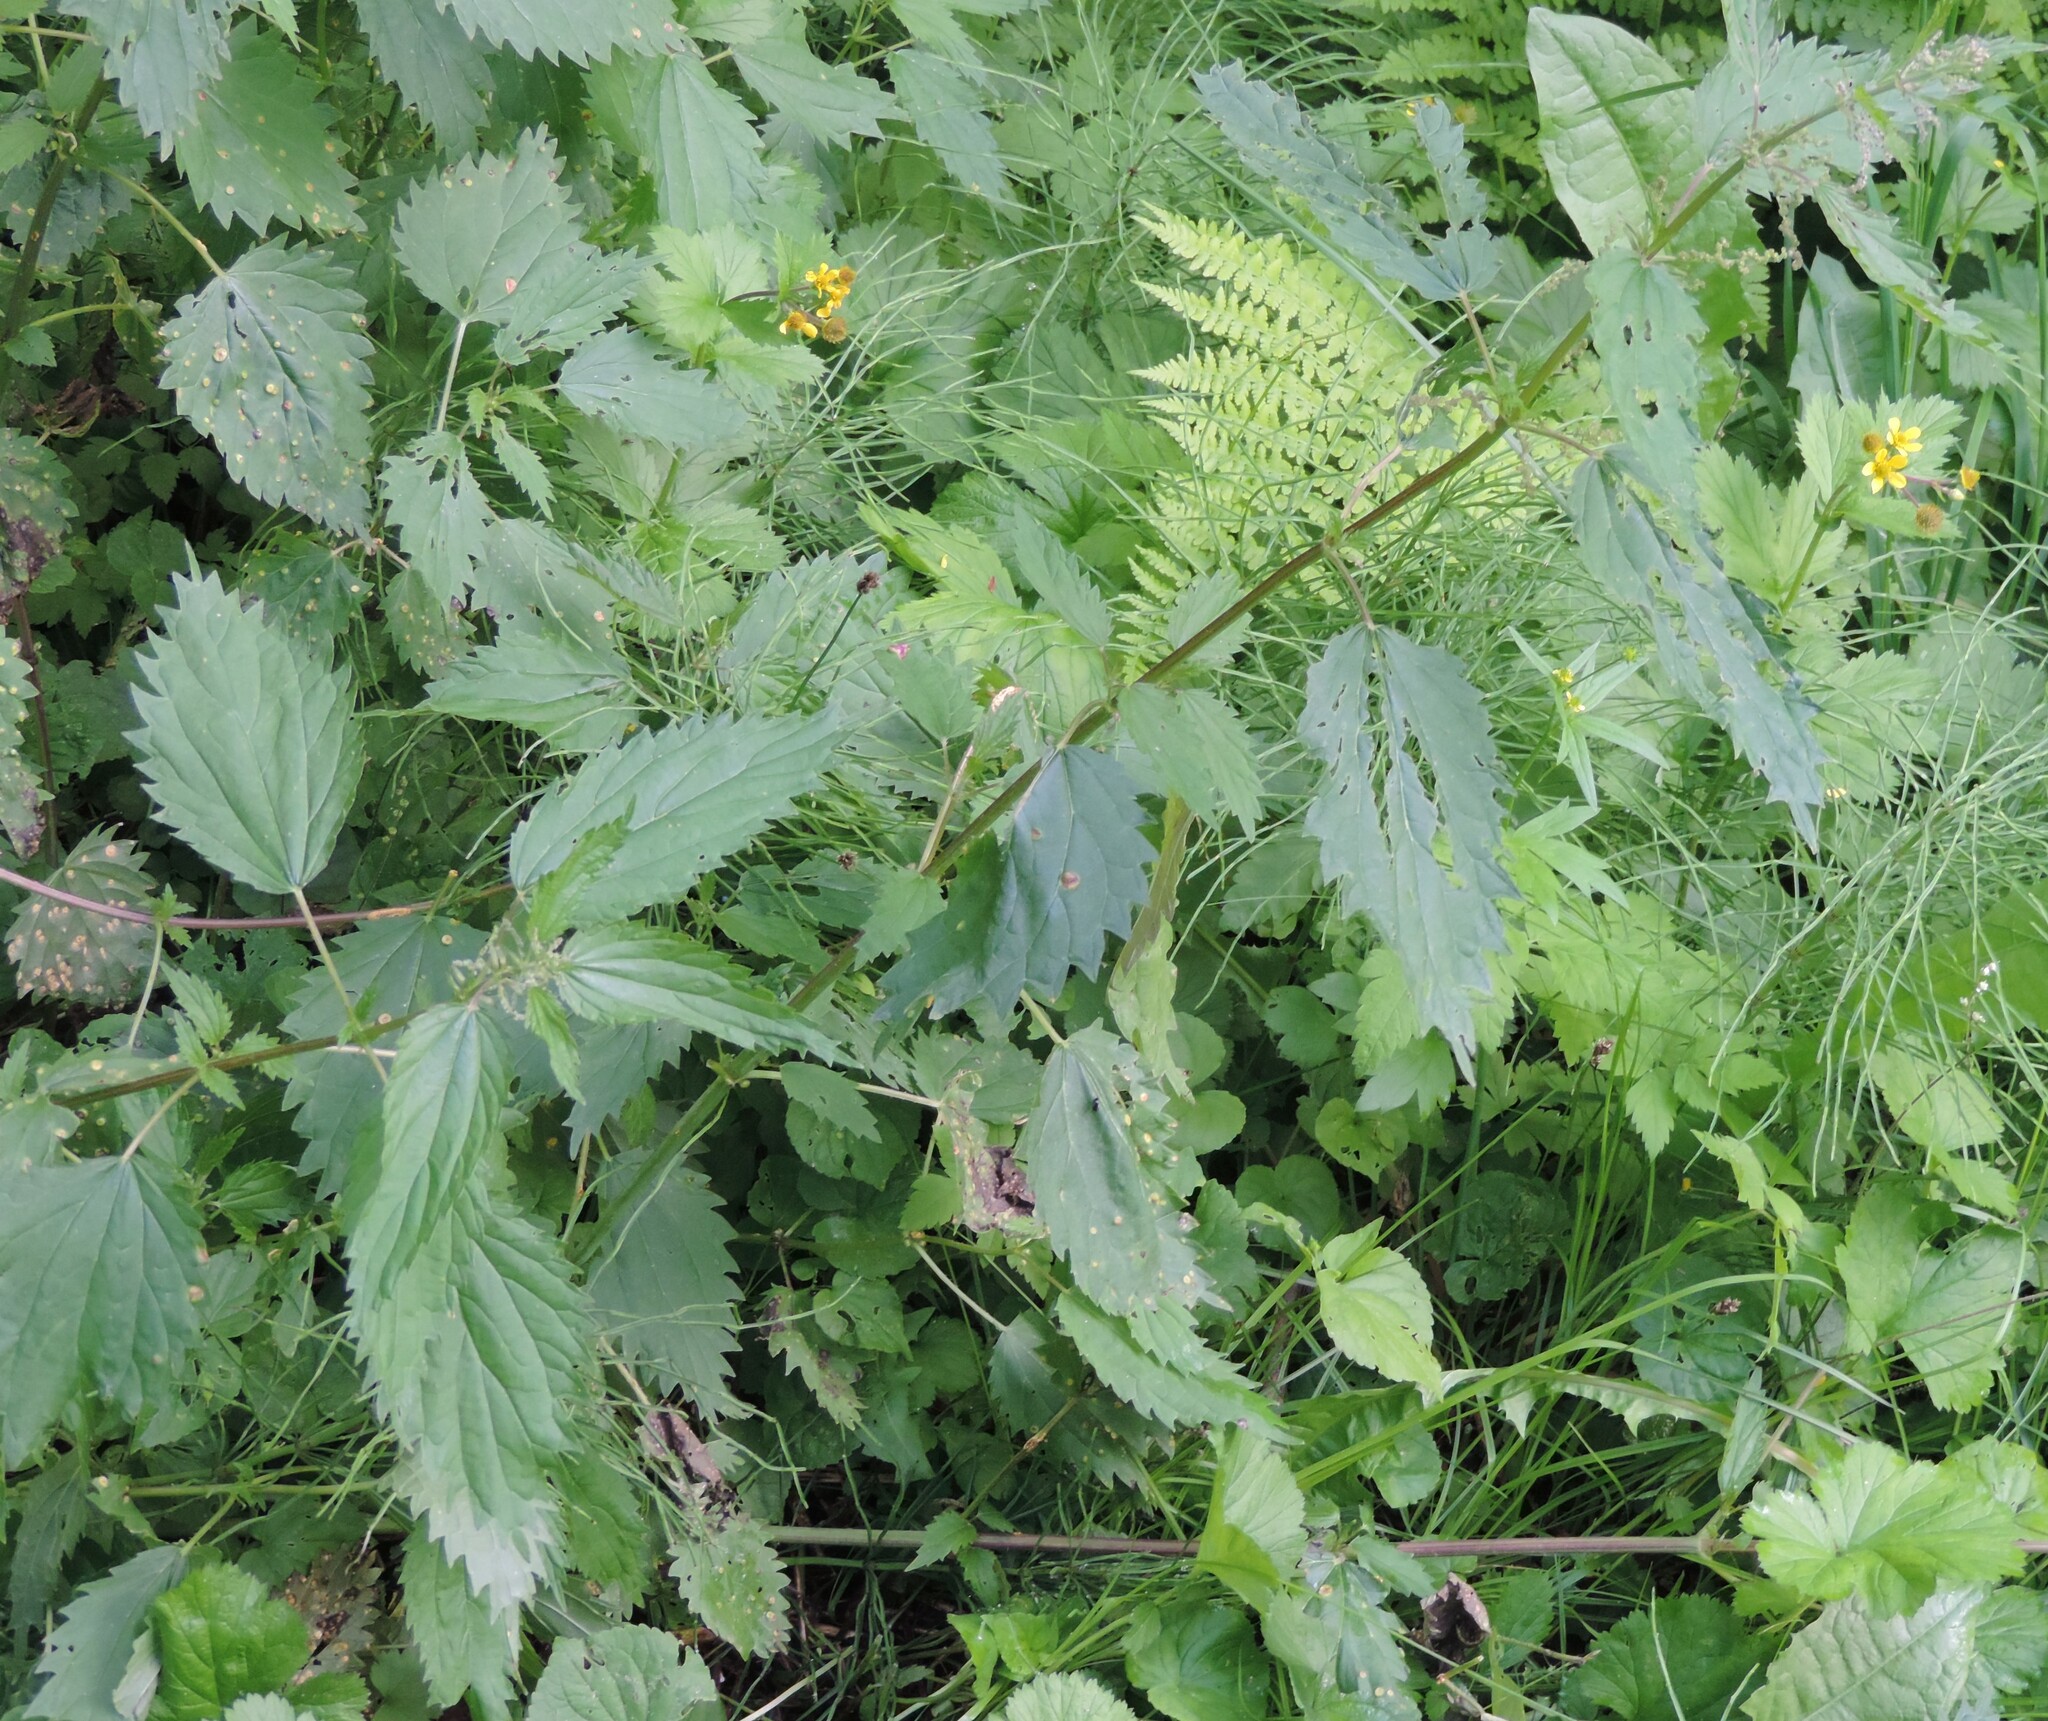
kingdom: Plantae
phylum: Tracheophyta
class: Magnoliopsida
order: Rosales
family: Urticaceae
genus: Urtica
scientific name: Urtica gracilis
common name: Slender stinging nettle
